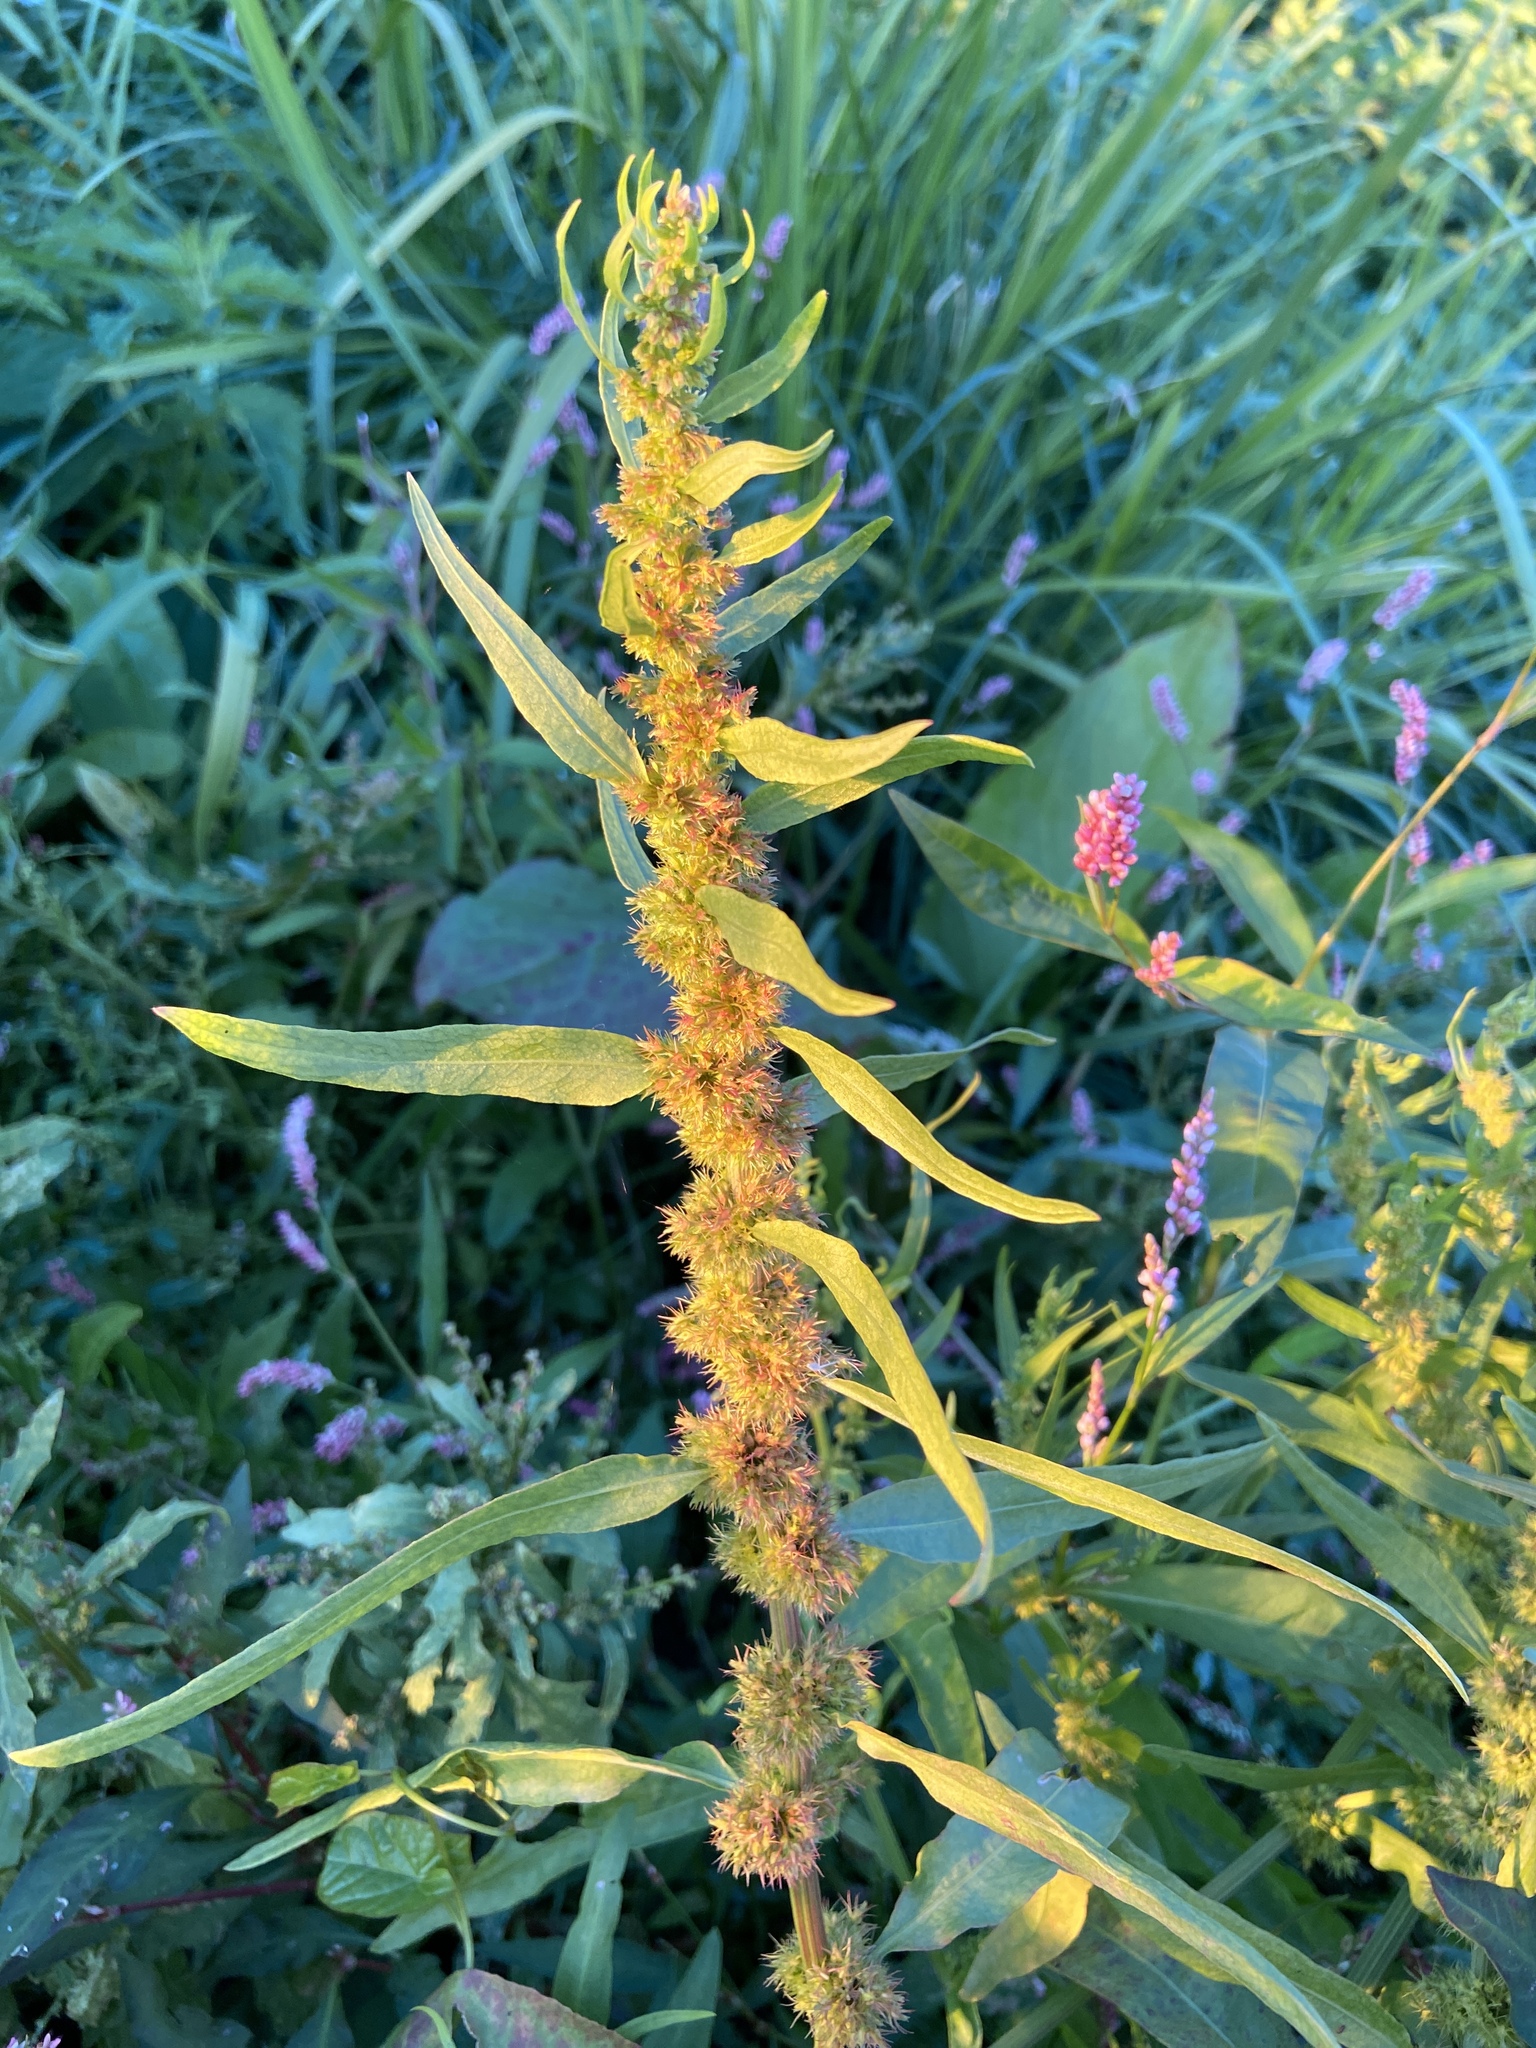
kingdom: Plantae
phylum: Tracheophyta
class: Magnoliopsida
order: Caryophyllales
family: Polygonaceae
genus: Rumex
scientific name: Rumex maritimus
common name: Golden dock
